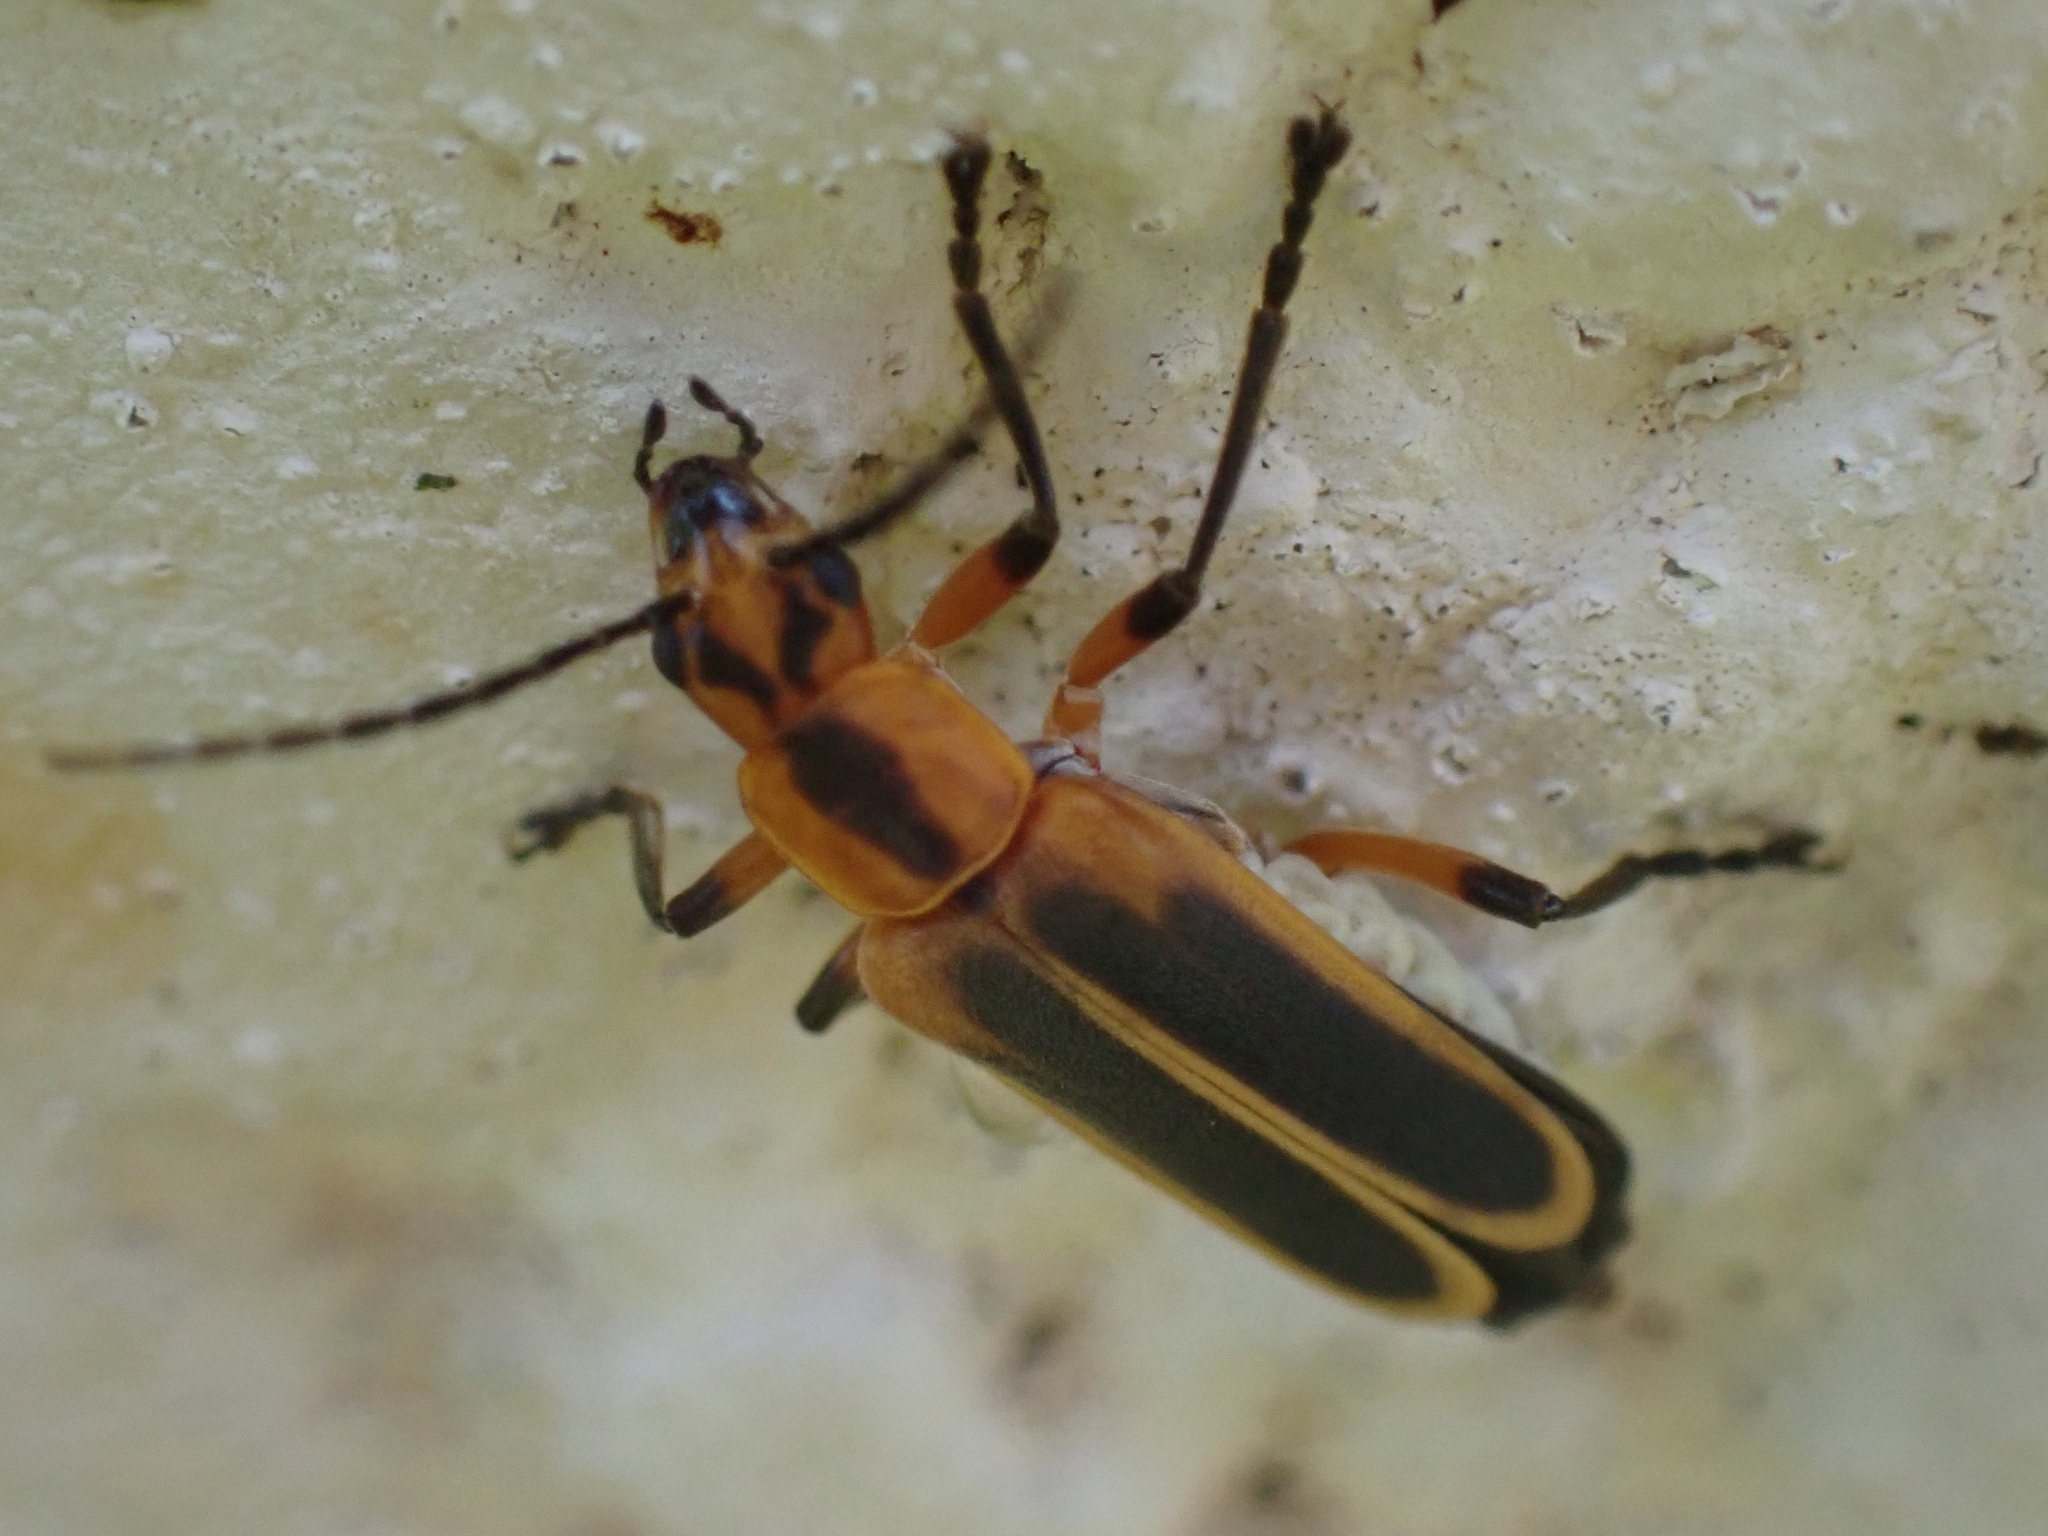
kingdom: Animalia
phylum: Arthropoda
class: Insecta
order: Coleoptera
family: Cantharidae
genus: Chauliognathus
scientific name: Chauliognathus marginatus
